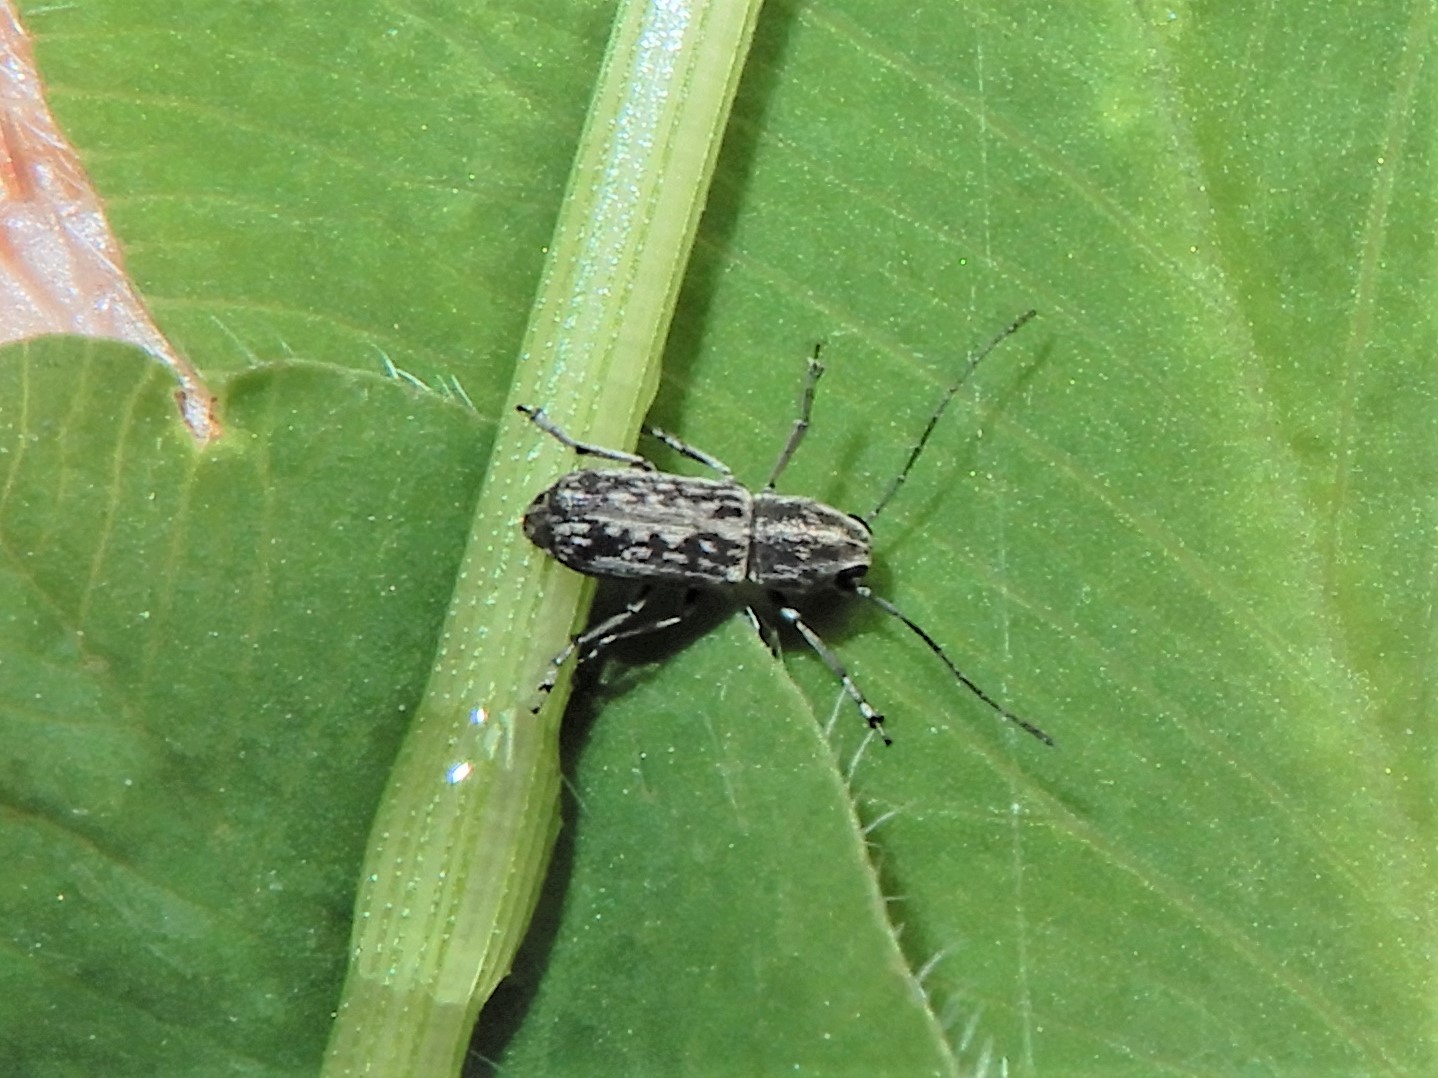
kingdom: Animalia
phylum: Arthropoda
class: Insecta
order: Coleoptera
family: Anthribidae
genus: Euciodes
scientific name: Euciodes suturalis
